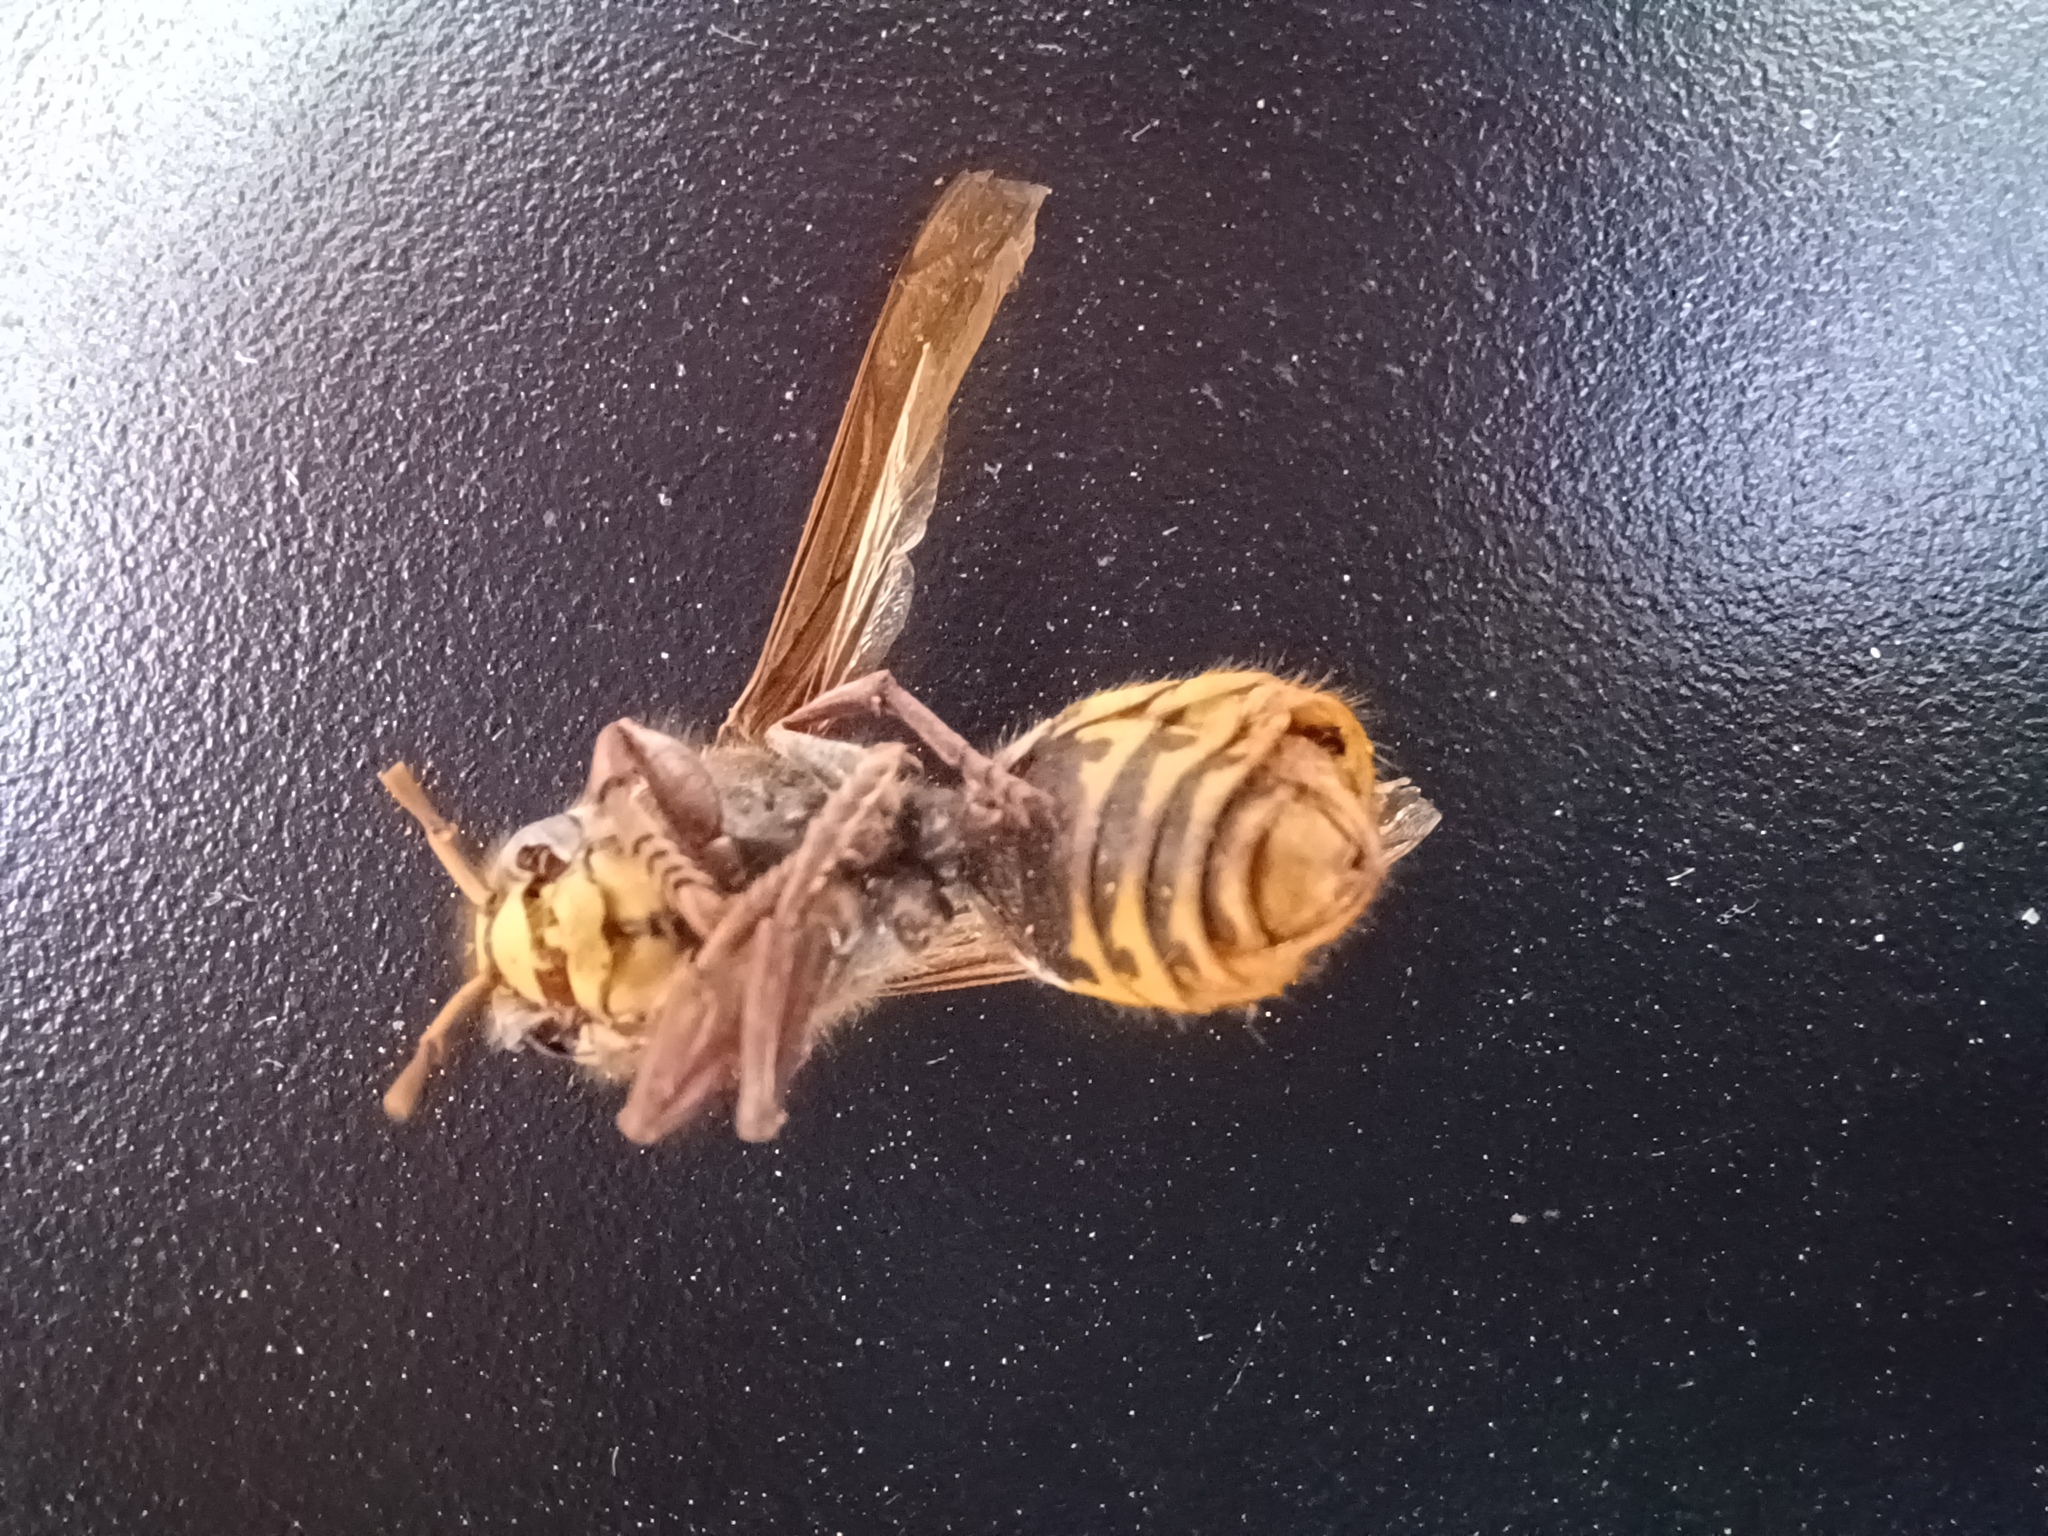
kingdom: Animalia
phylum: Arthropoda
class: Insecta
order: Hymenoptera
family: Vespidae
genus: Vespa
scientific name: Vespa crabro
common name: Hornet
